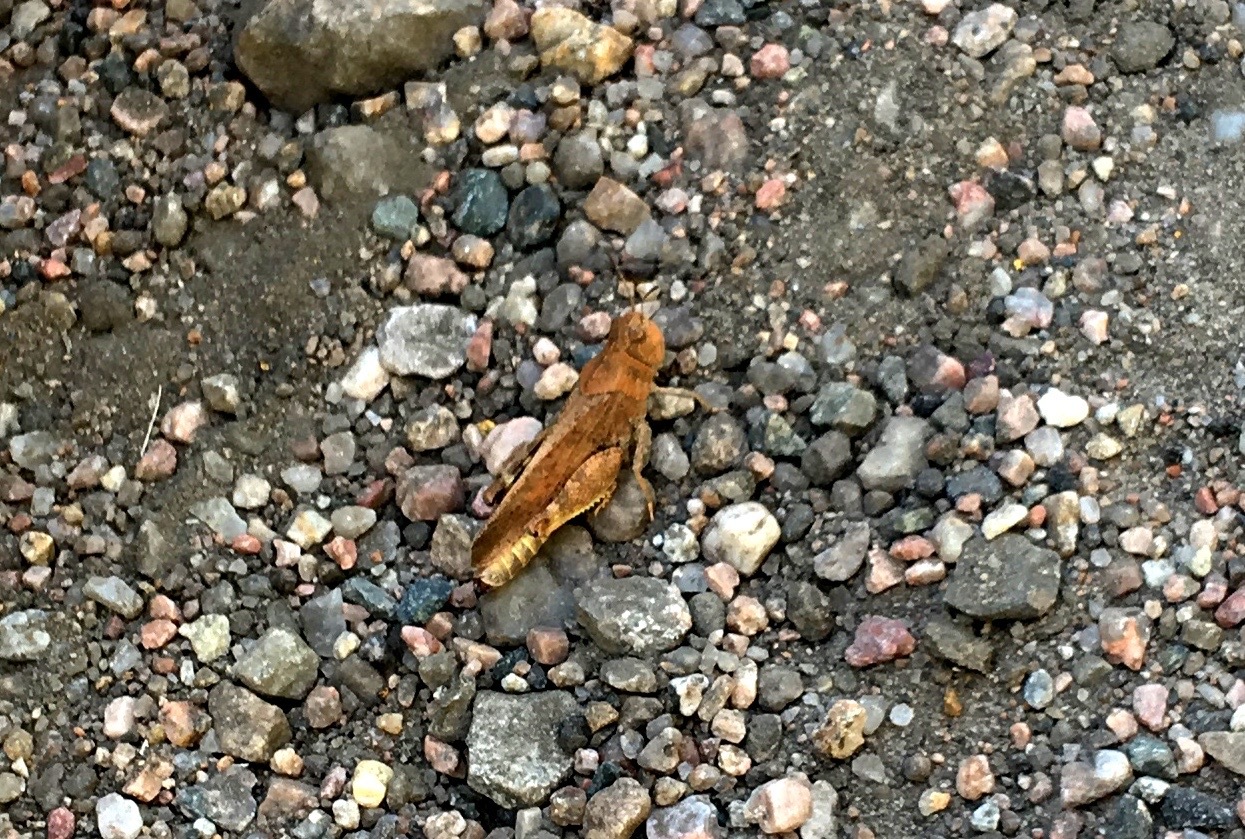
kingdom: Animalia
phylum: Arthropoda
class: Insecta
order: Orthoptera
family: Acrididae
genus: Arphia
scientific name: Arphia conspersa
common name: Speckle-winged rangeland grasshopper
